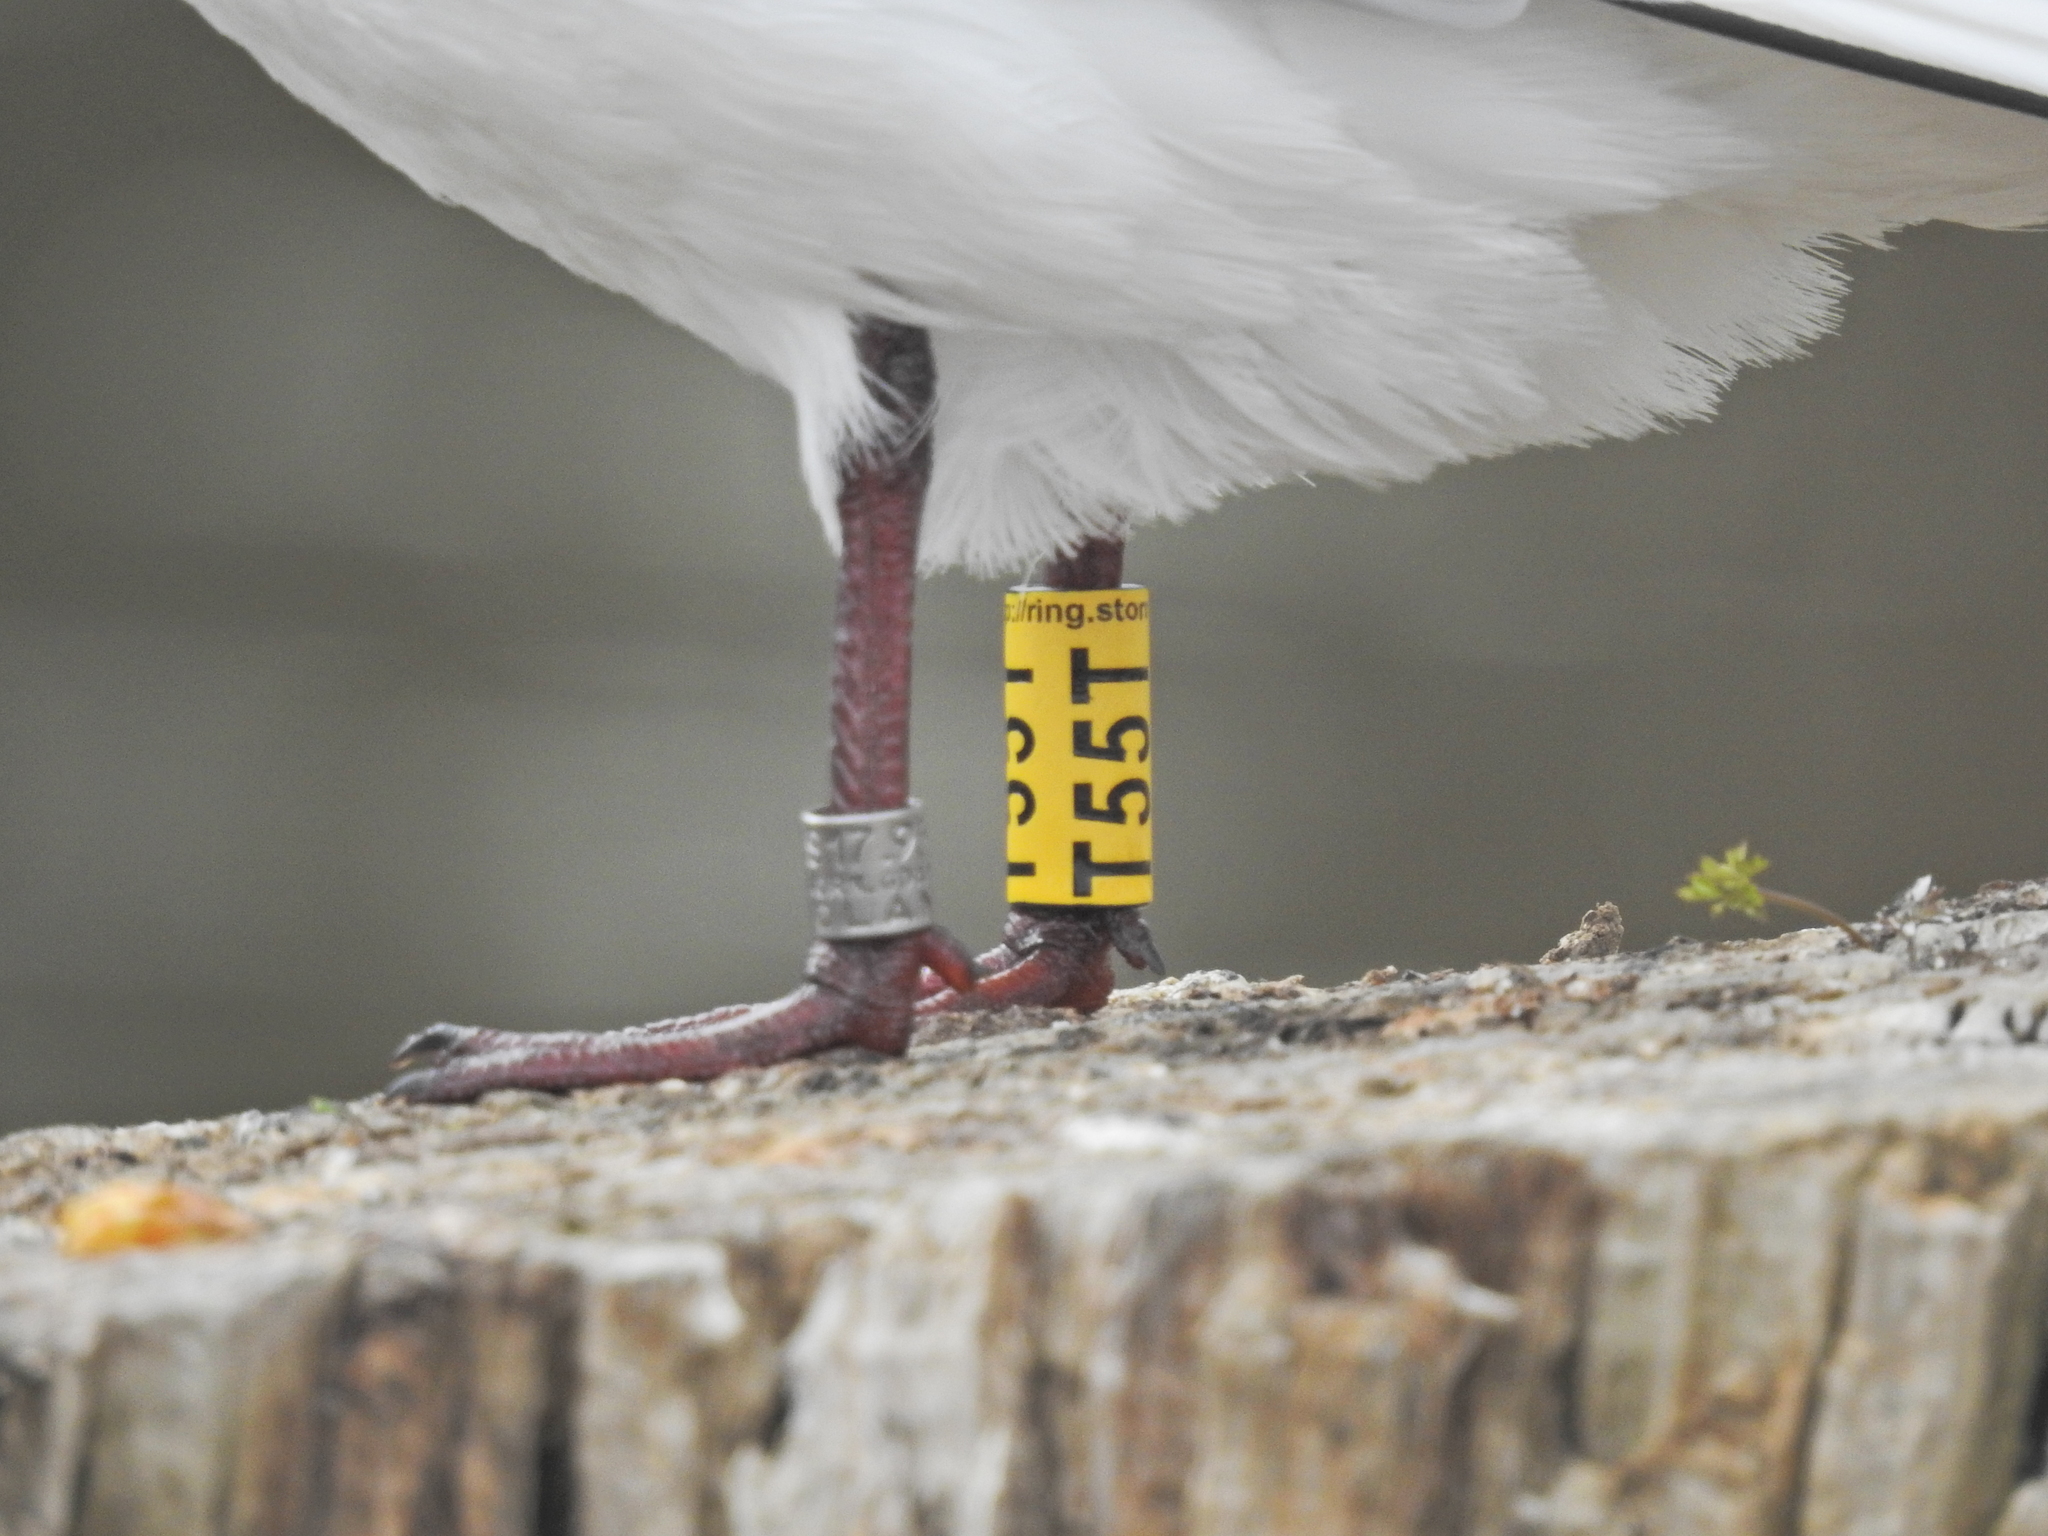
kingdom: Animalia
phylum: Chordata
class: Aves
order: Charadriiformes
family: Laridae
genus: Chroicocephalus
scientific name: Chroicocephalus ridibundus
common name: Black-headed gull
